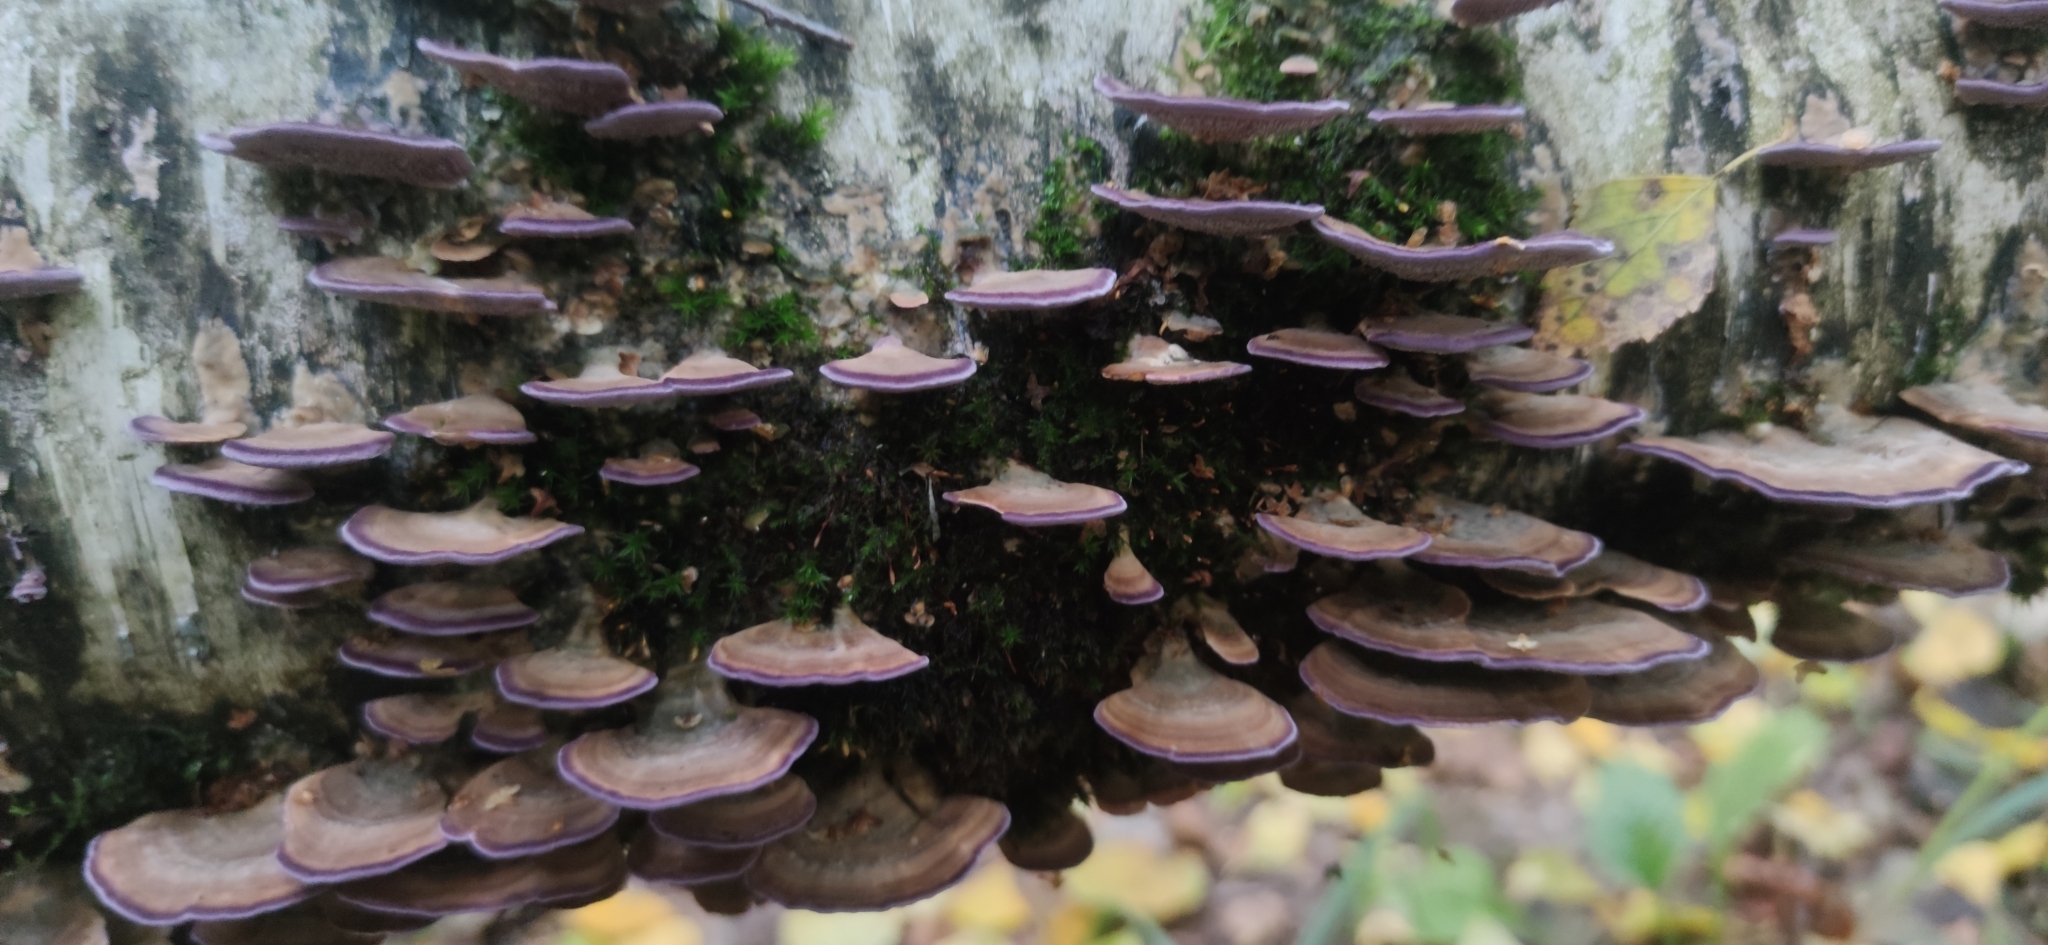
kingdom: Fungi
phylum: Basidiomycota
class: Agaricomycetes
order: Hymenochaetales
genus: Trichaptum
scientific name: Trichaptum biforme
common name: Violet-toothed polypore
